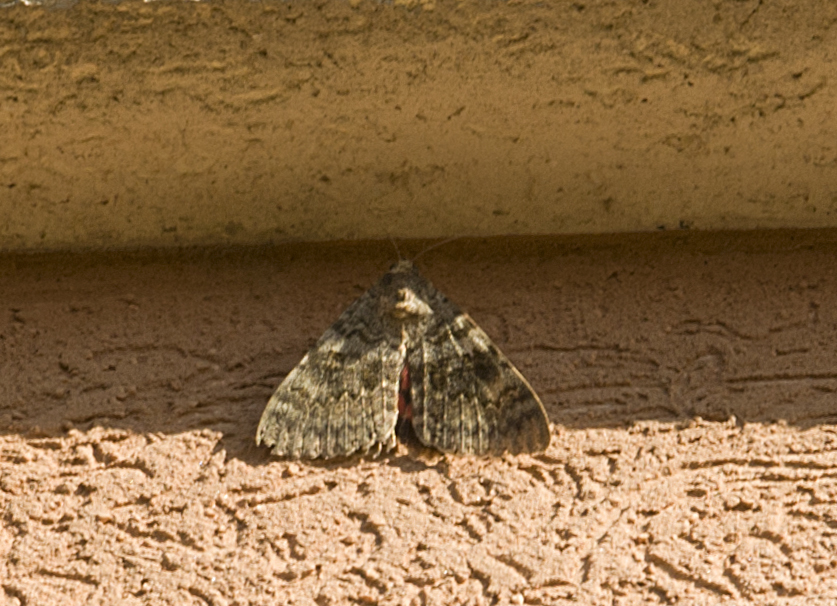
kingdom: Animalia
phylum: Arthropoda
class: Insecta
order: Lepidoptera
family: Erebidae
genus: Catocala
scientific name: Catocala elocata
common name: French red underwing
